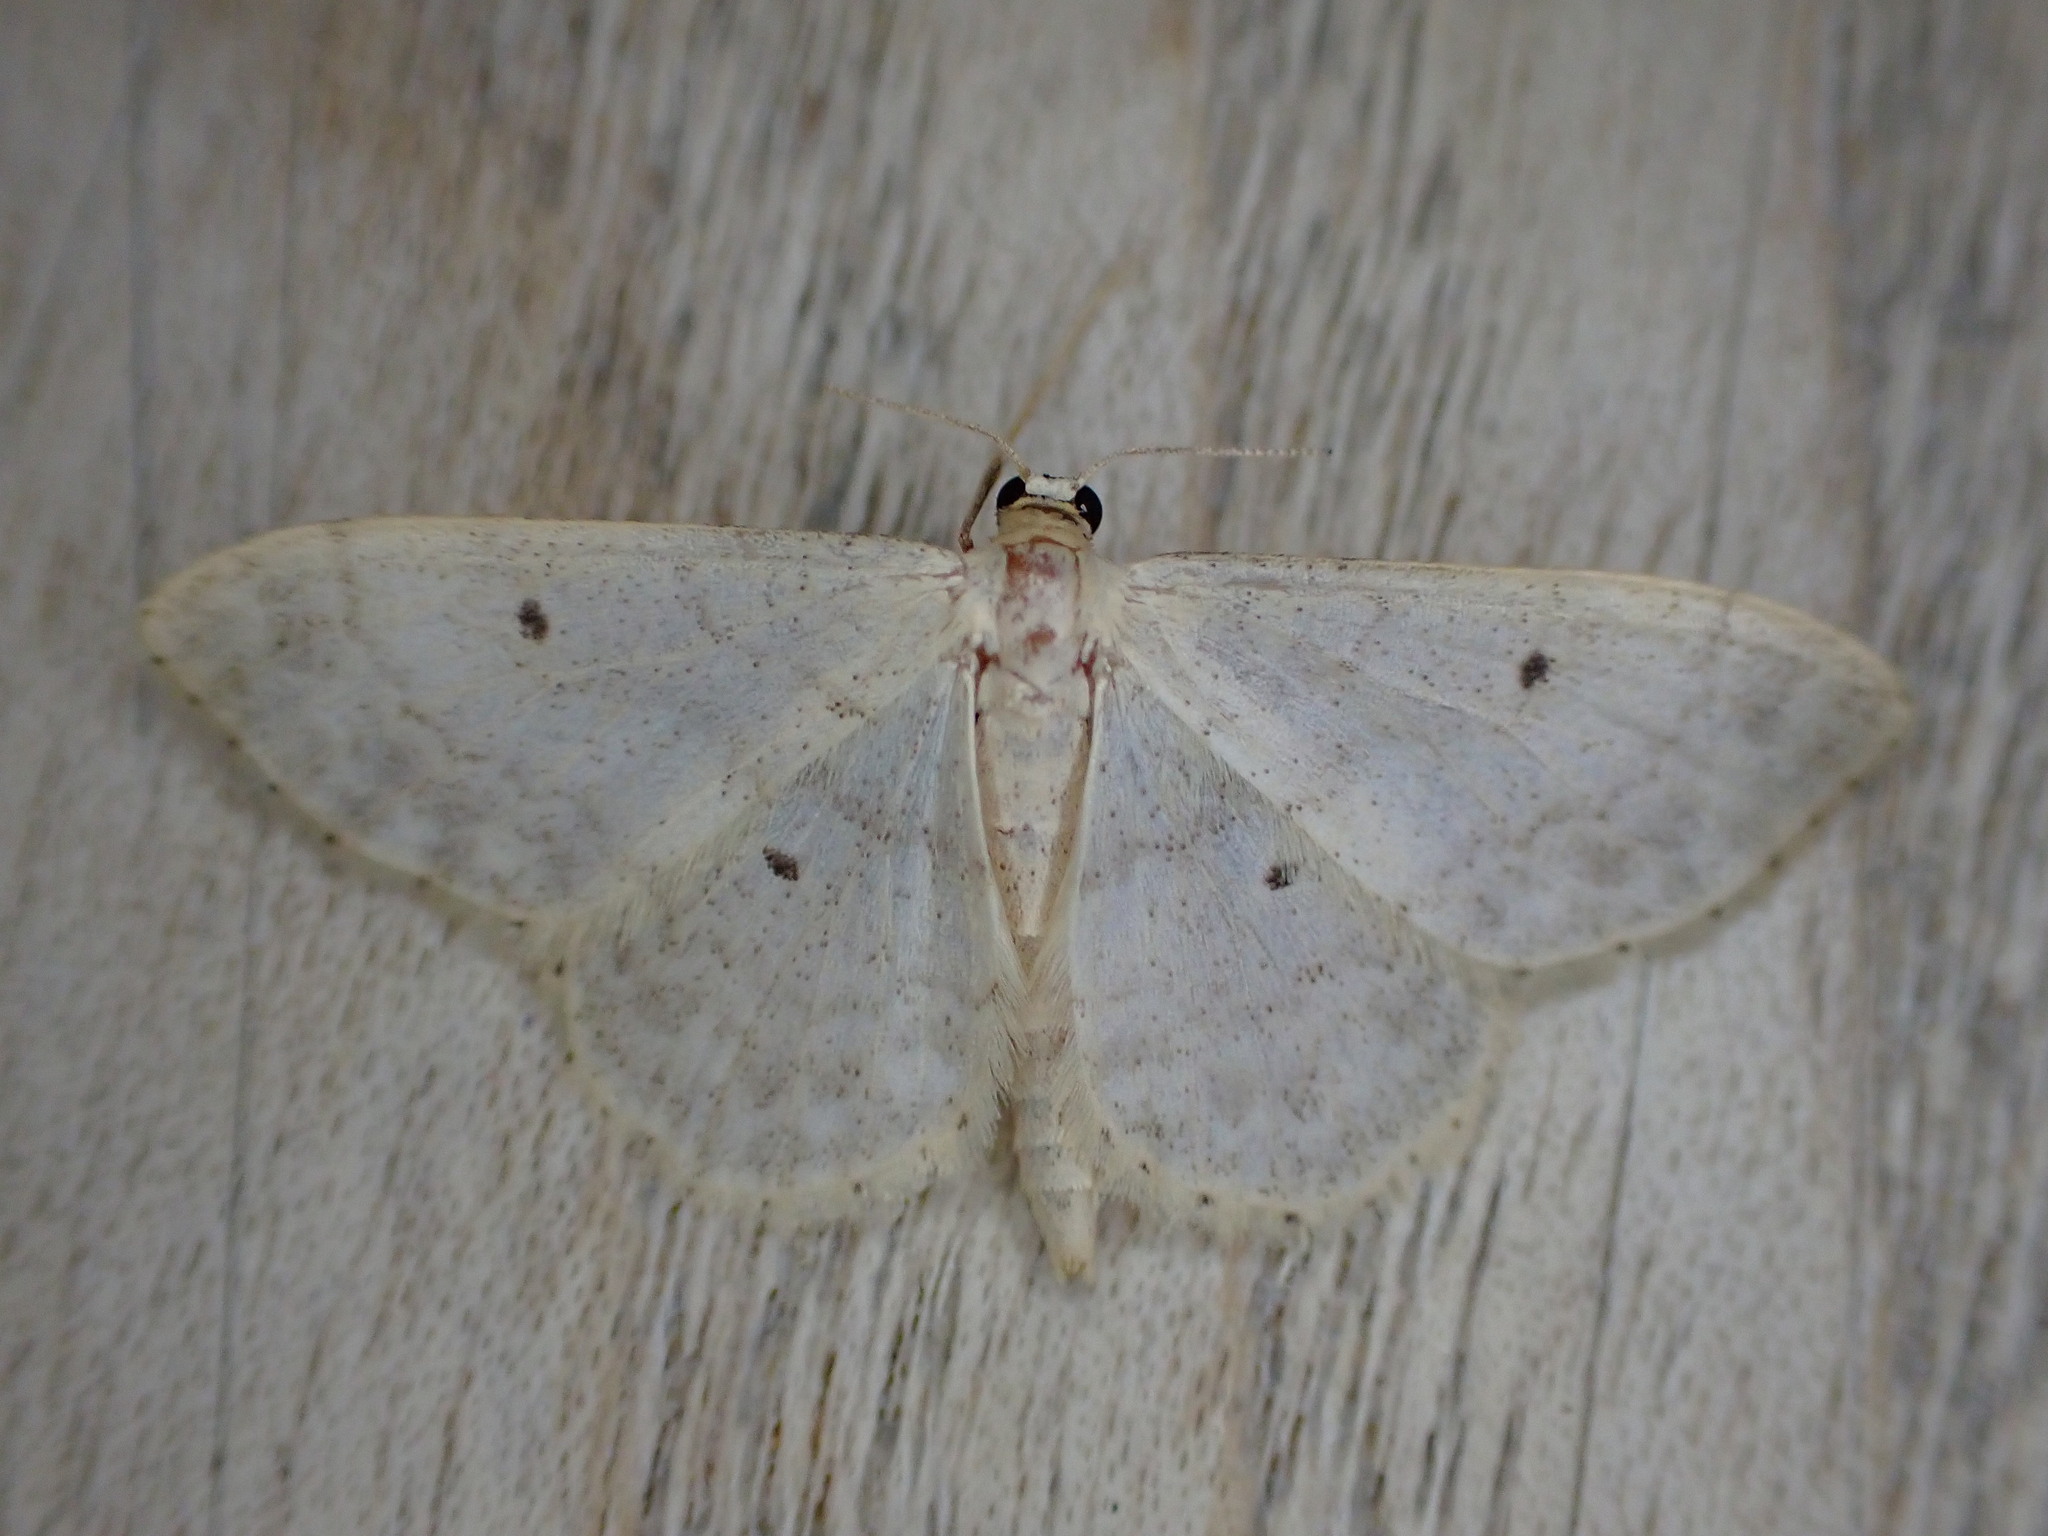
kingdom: Animalia
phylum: Arthropoda
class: Insecta
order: Lepidoptera
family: Geometridae
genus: Idaea
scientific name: Idaea biselata
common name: Small fan-footed wave
